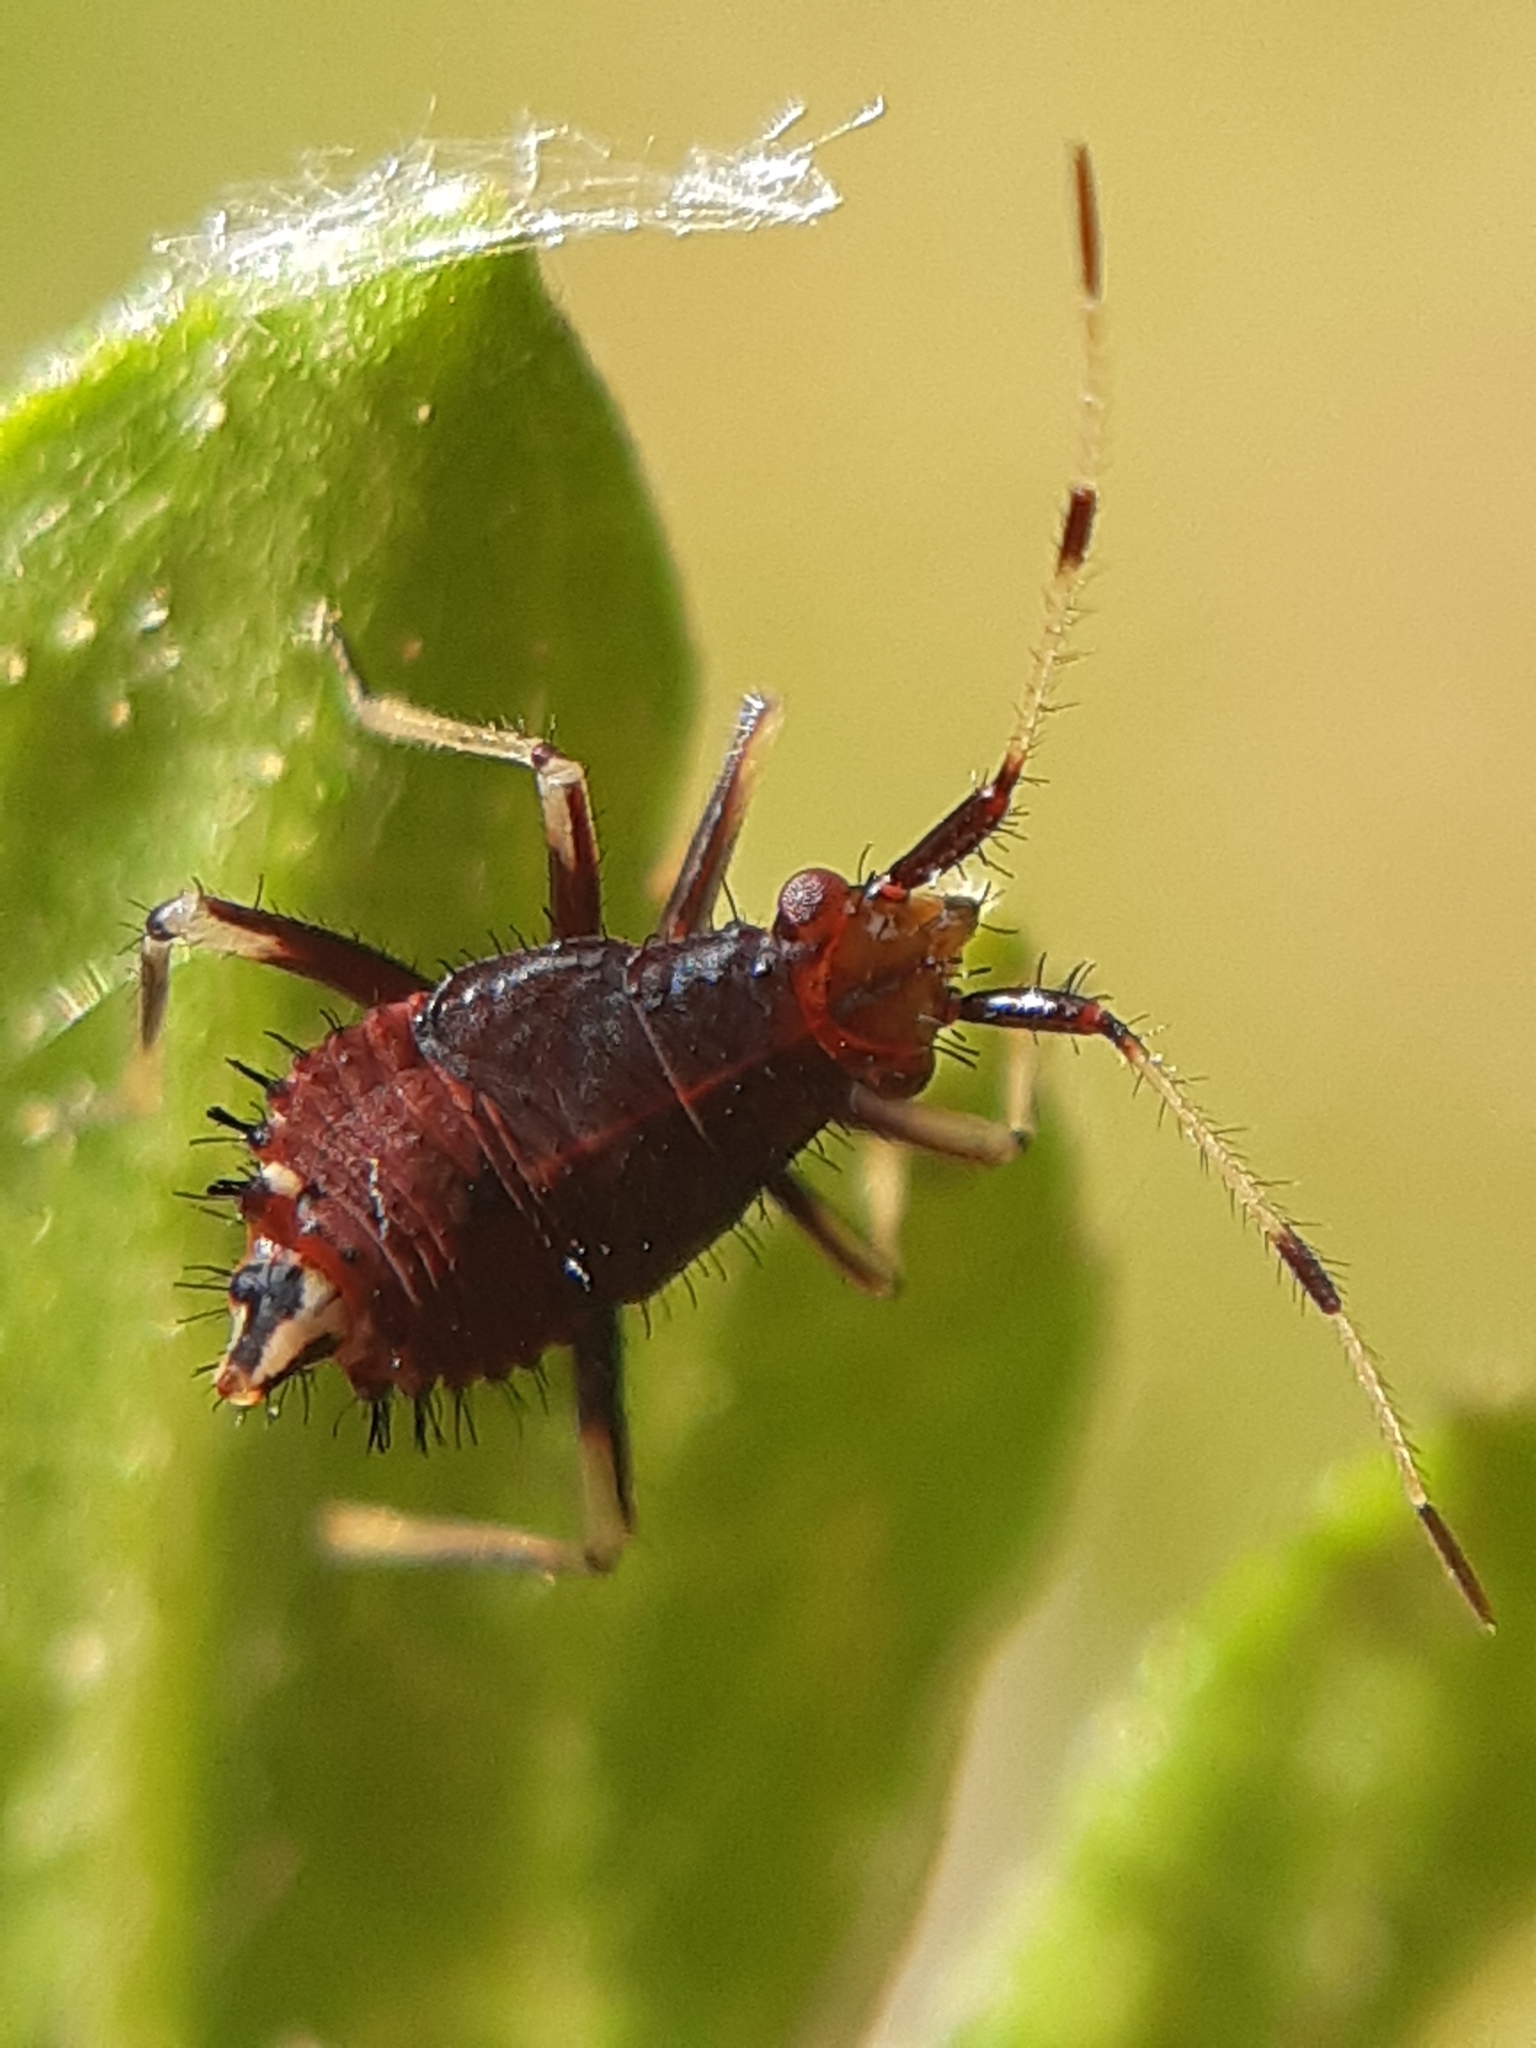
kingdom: Animalia
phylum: Arthropoda
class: Insecta
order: Hemiptera
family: Miridae
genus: Deraeocoris
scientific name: Deraeocoris ruber
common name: Plant bug
